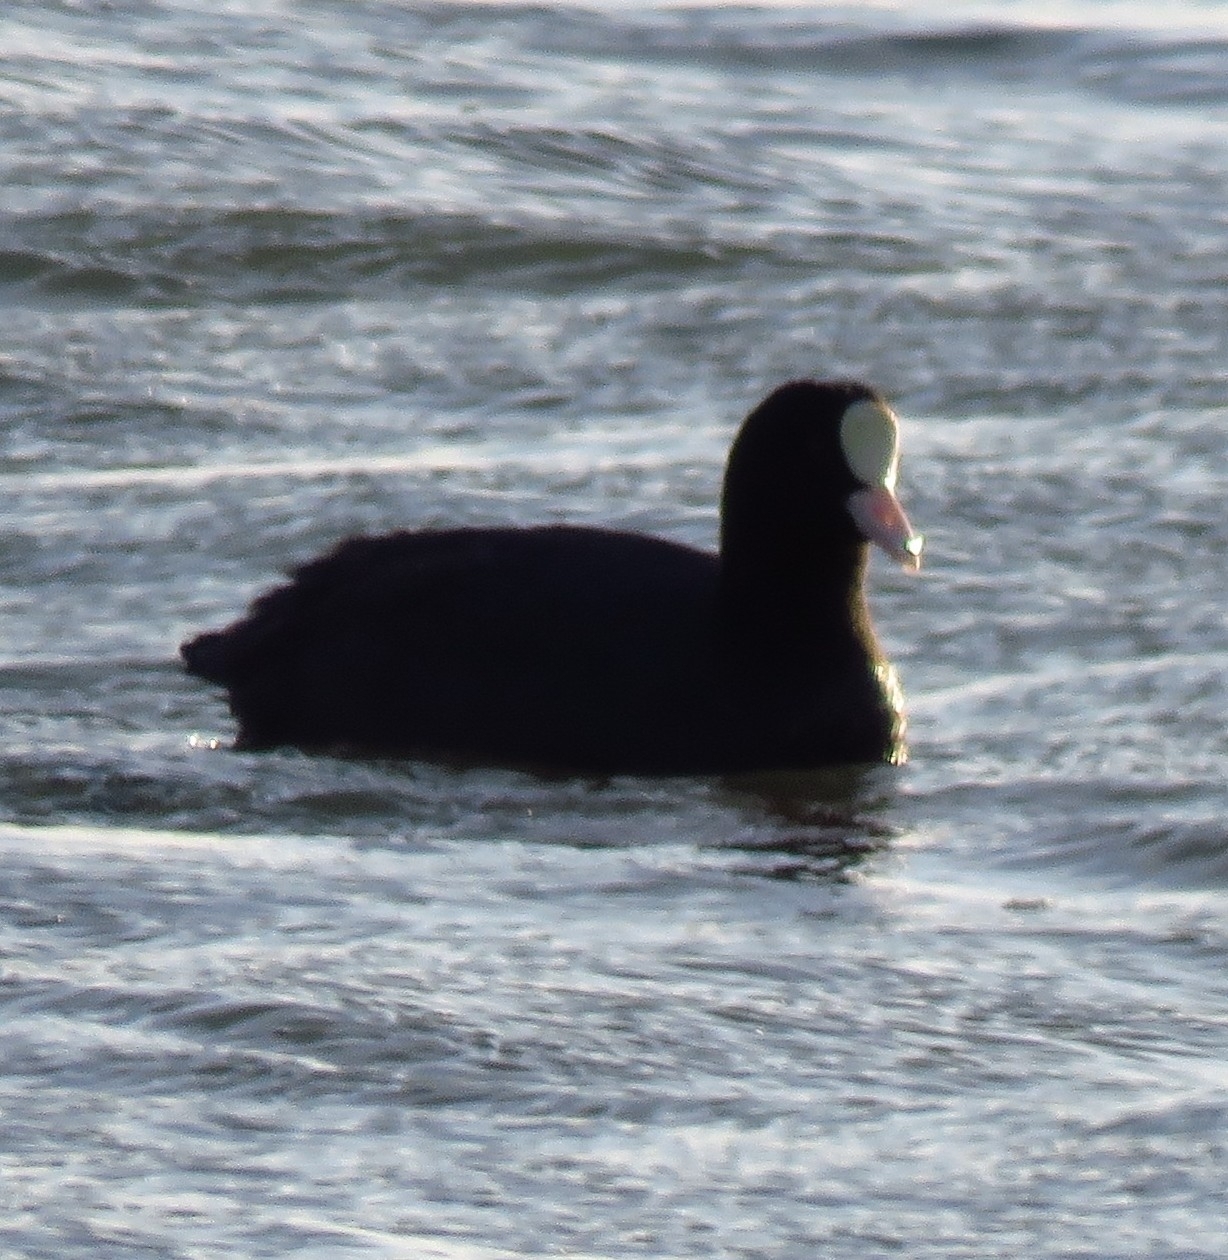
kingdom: Animalia
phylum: Chordata
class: Aves
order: Gruiformes
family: Rallidae
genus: Fulica
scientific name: Fulica atra
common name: Eurasian coot
